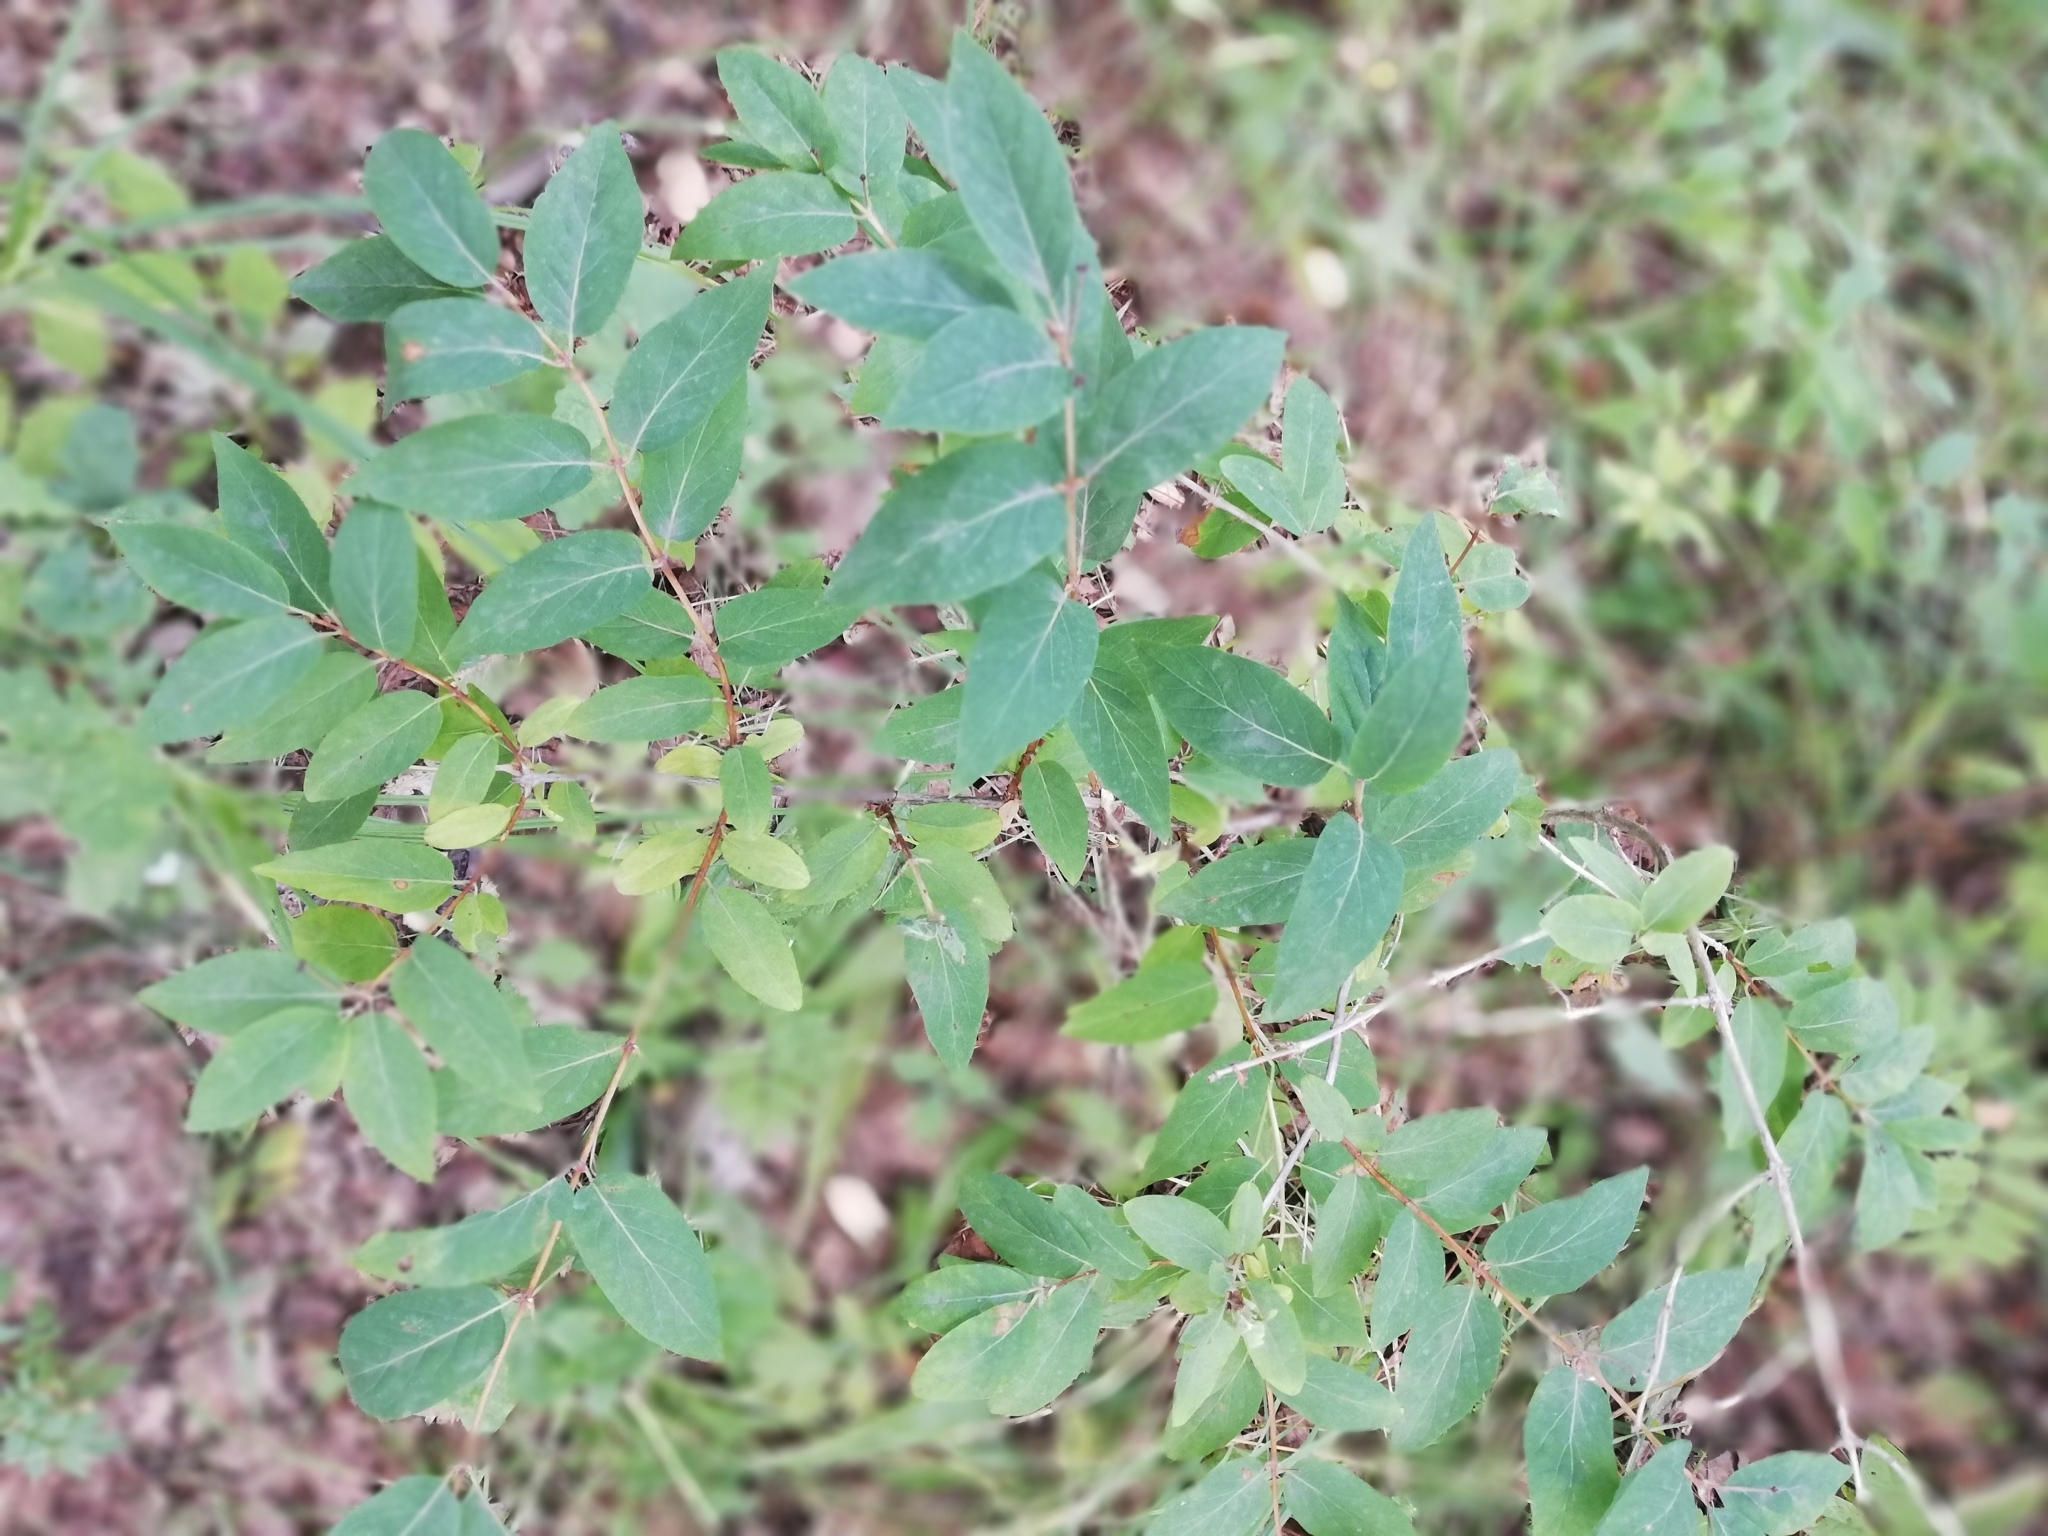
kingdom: Plantae
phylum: Tracheophyta
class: Magnoliopsida
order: Dipsacales
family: Caprifoliaceae
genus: Lonicera
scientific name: Lonicera tatarica
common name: Tatarian honeysuckle
